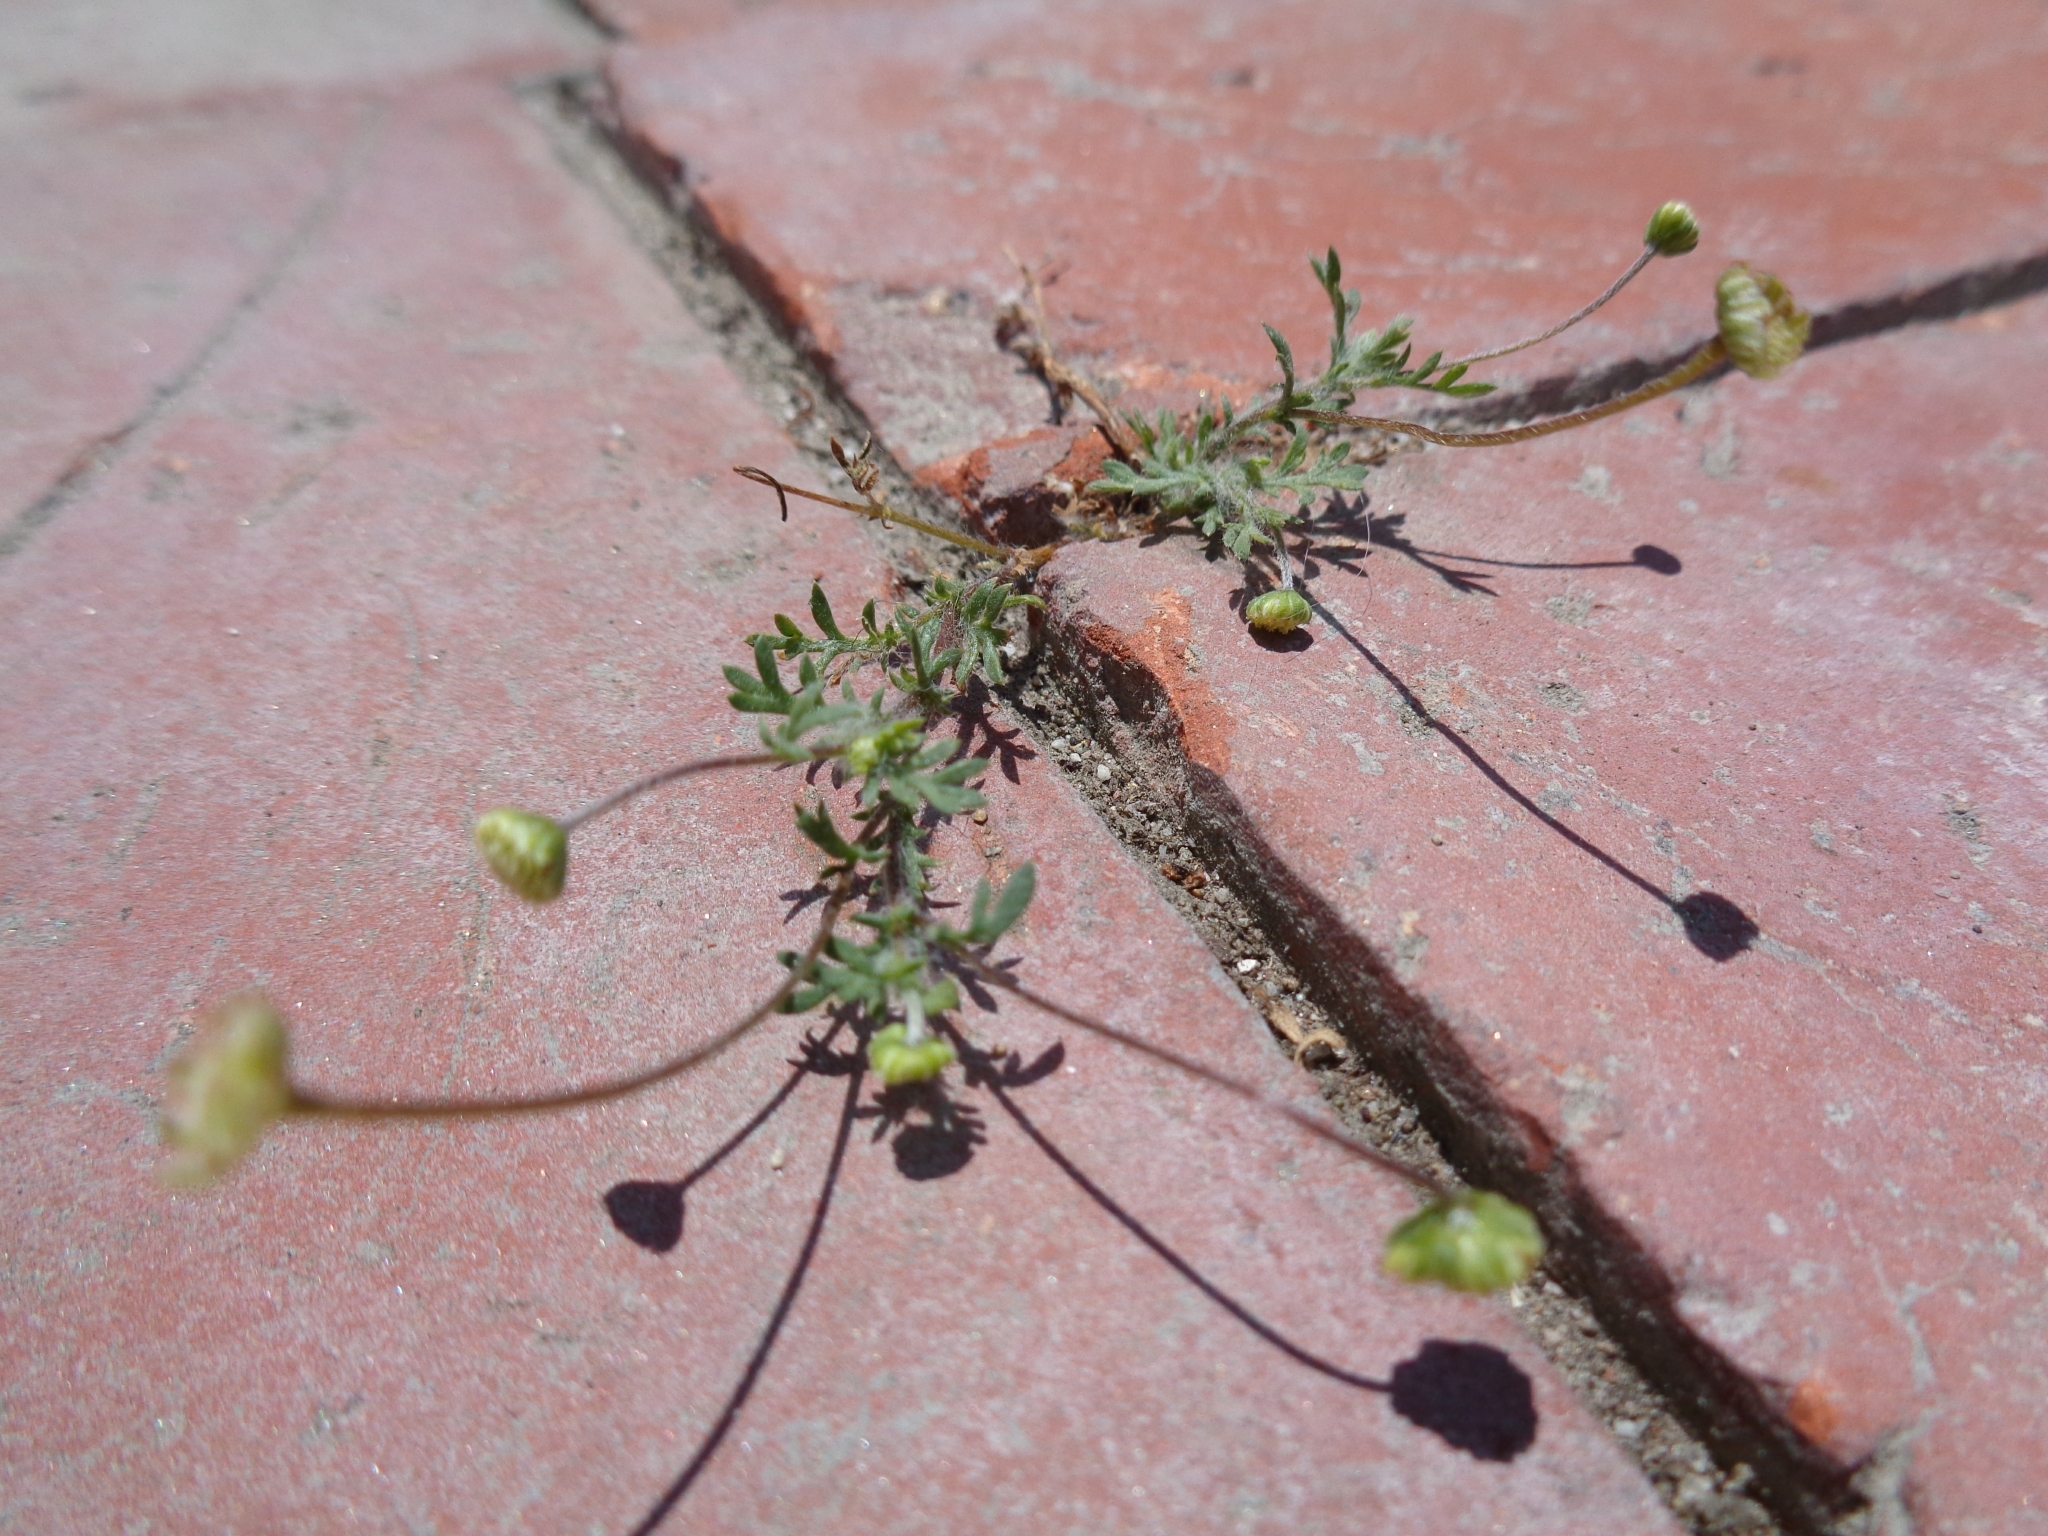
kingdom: Plantae
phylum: Tracheophyta
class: Magnoliopsida
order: Asterales
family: Asteraceae
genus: Cotula
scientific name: Cotula australis
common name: Australian waterbuttons
